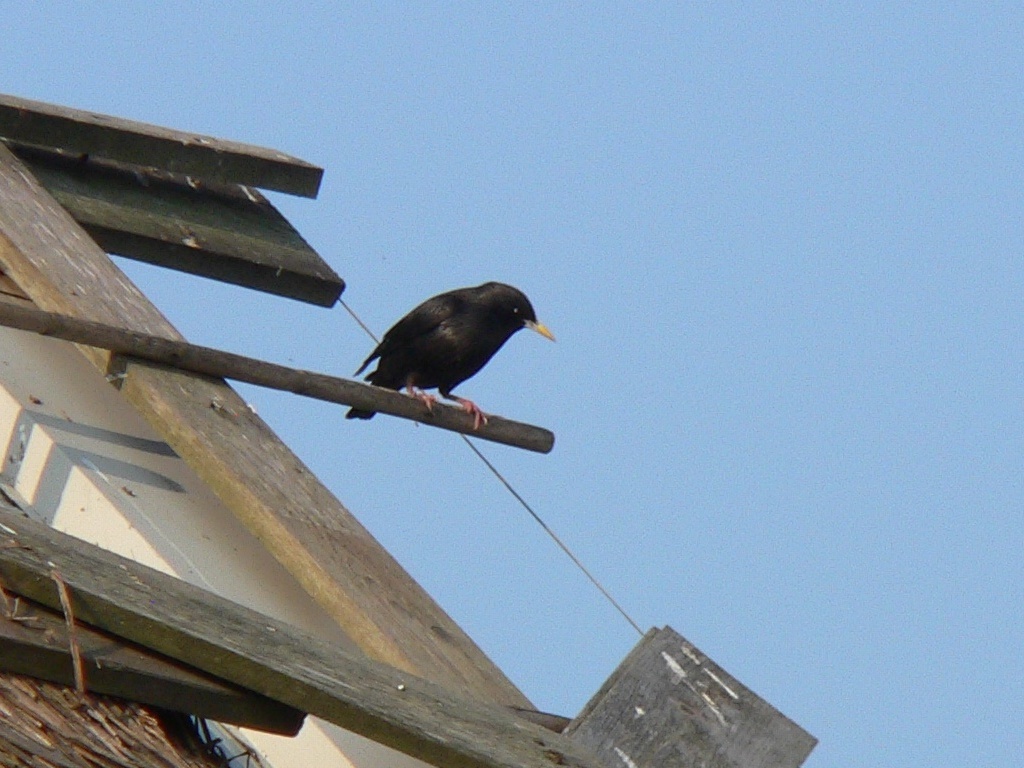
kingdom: Animalia
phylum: Chordata
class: Aves
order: Passeriformes
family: Sturnidae
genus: Sturnus
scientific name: Sturnus unicolor
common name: Spotless starling
